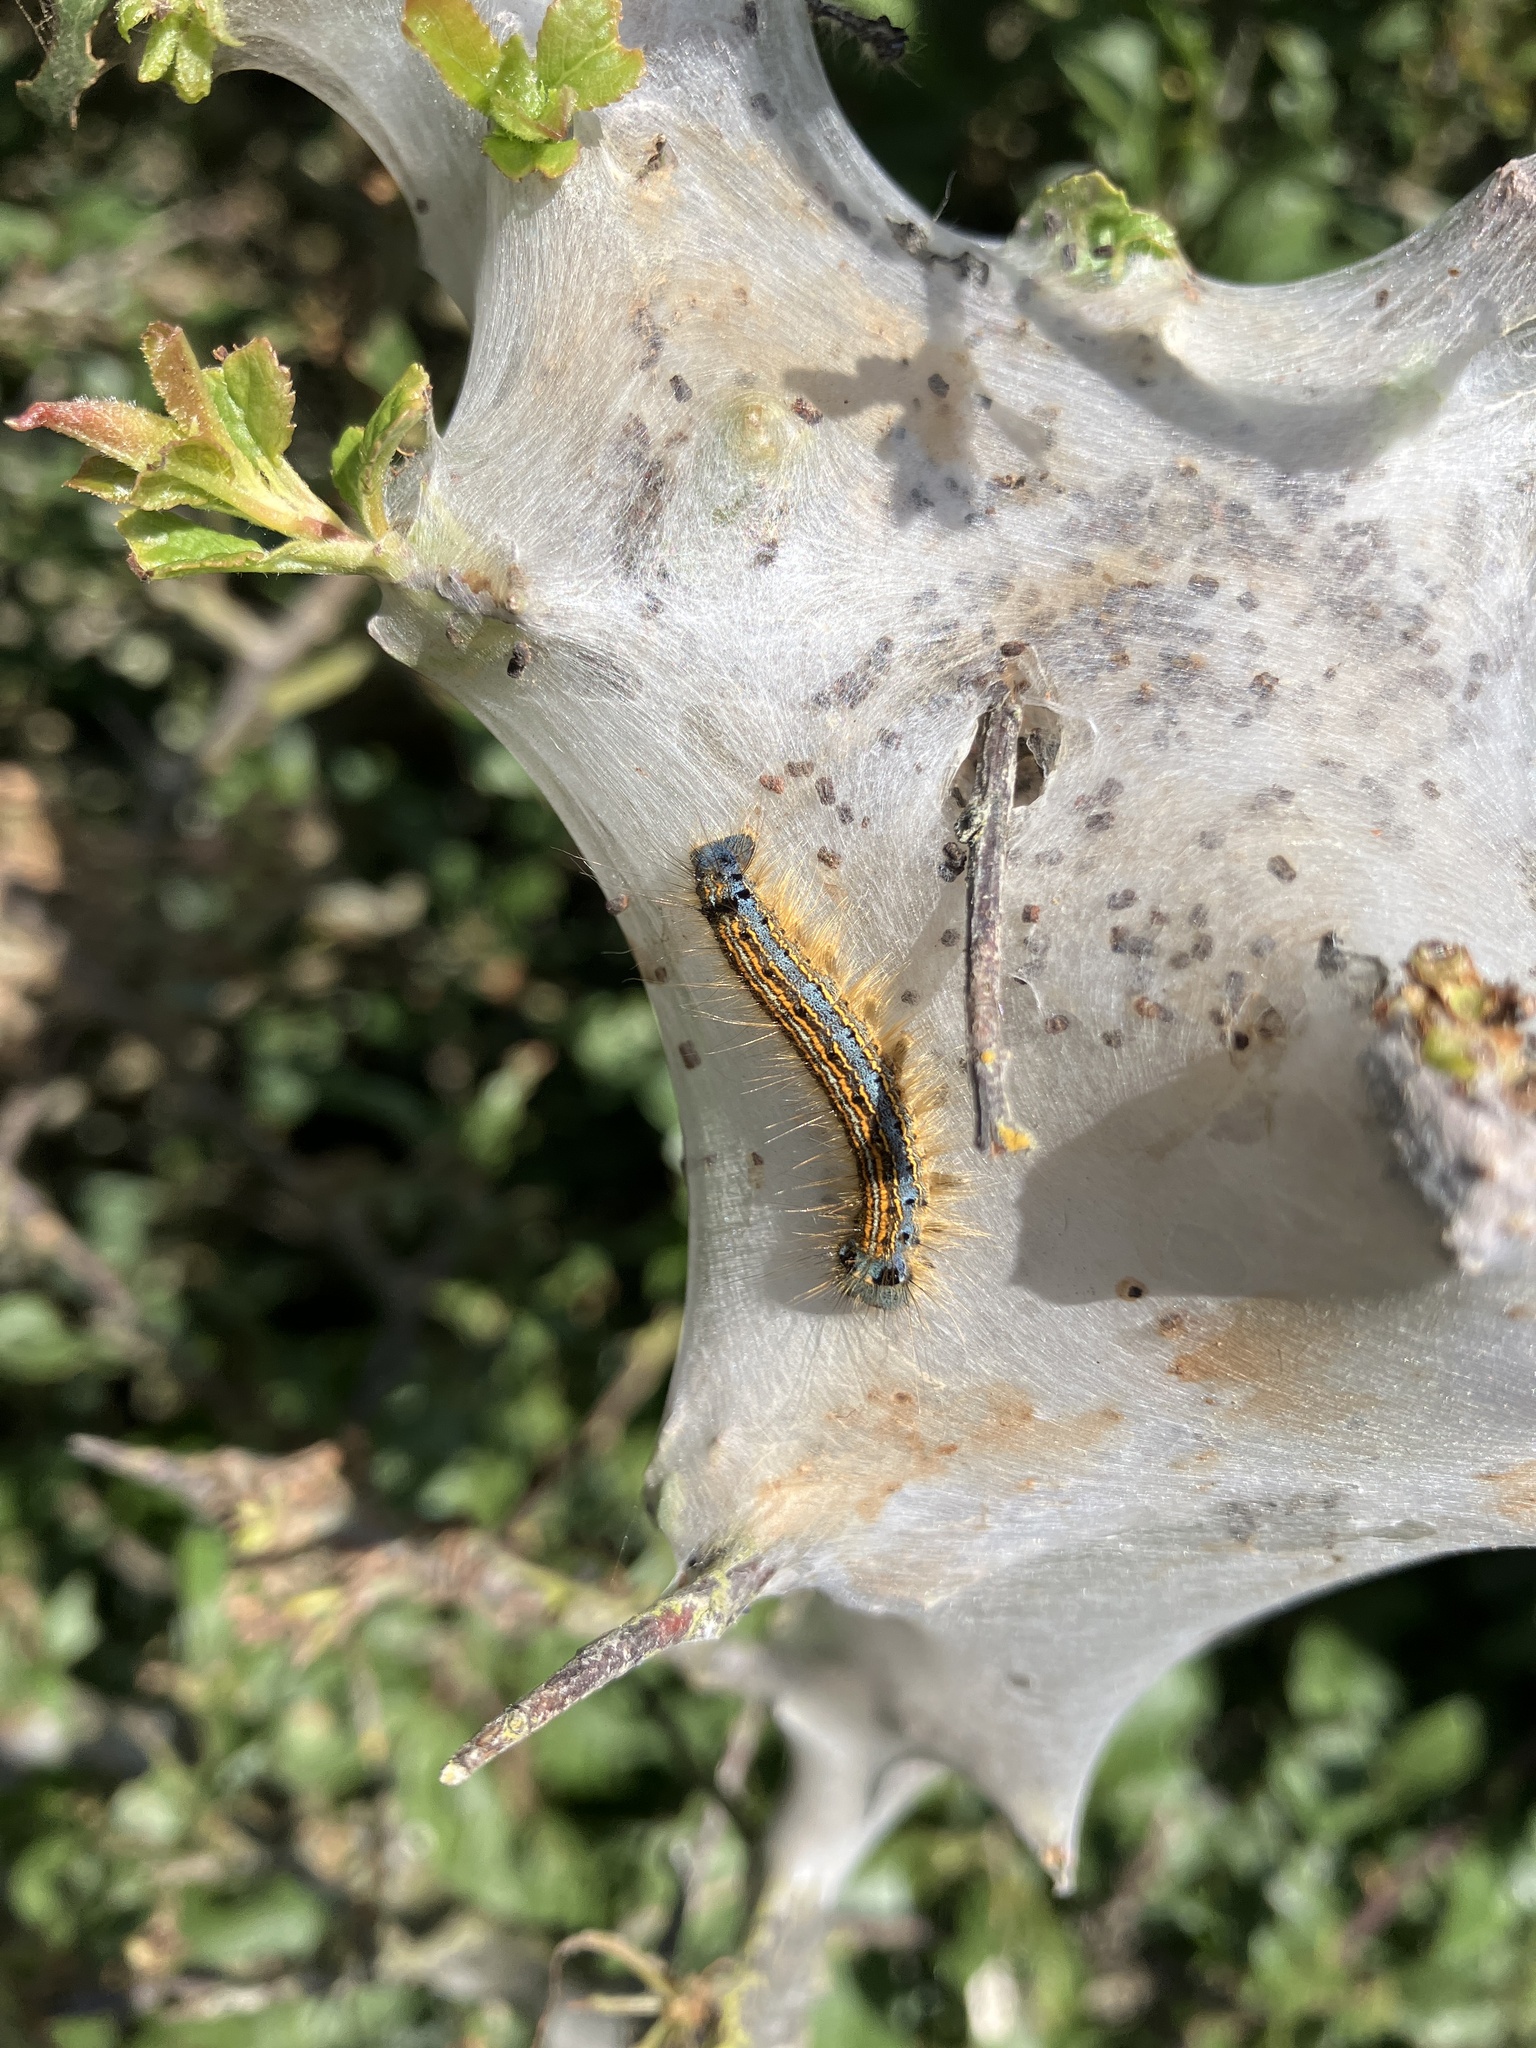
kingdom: Animalia
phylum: Arthropoda
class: Insecta
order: Lepidoptera
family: Lasiocampidae
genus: Malacosoma
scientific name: Malacosoma neustria
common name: The lackey
